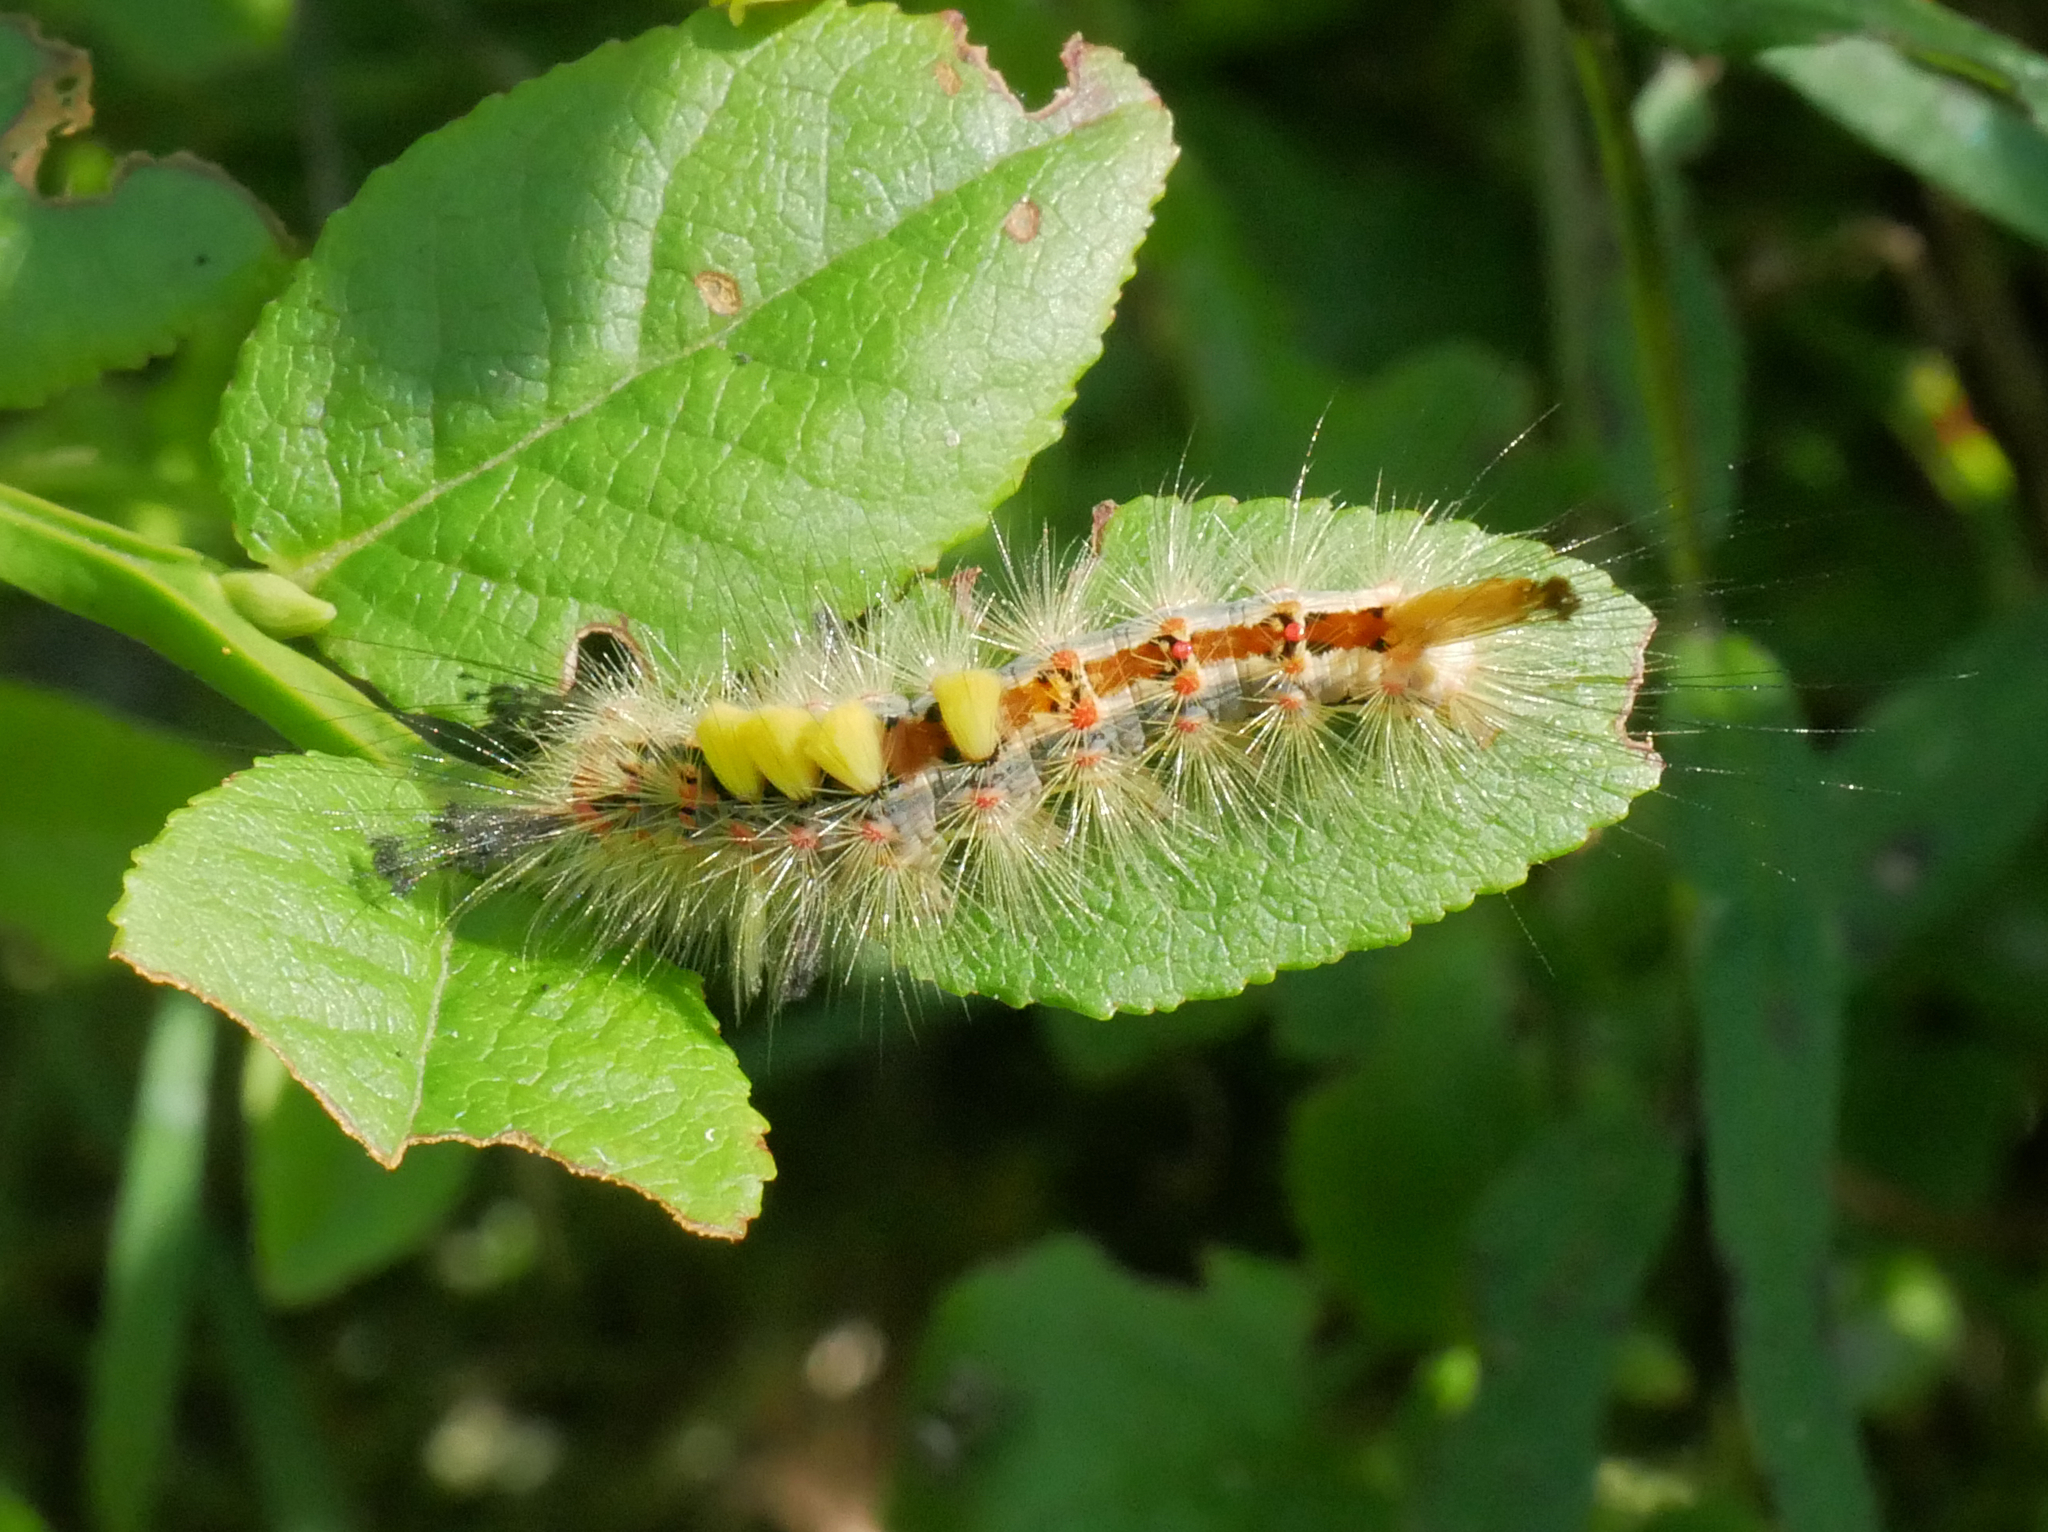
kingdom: Animalia
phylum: Arthropoda
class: Insecta
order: Lepidoptera
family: Erebidae
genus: Orgyia
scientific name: Orgyia antiqua
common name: Vapourer
